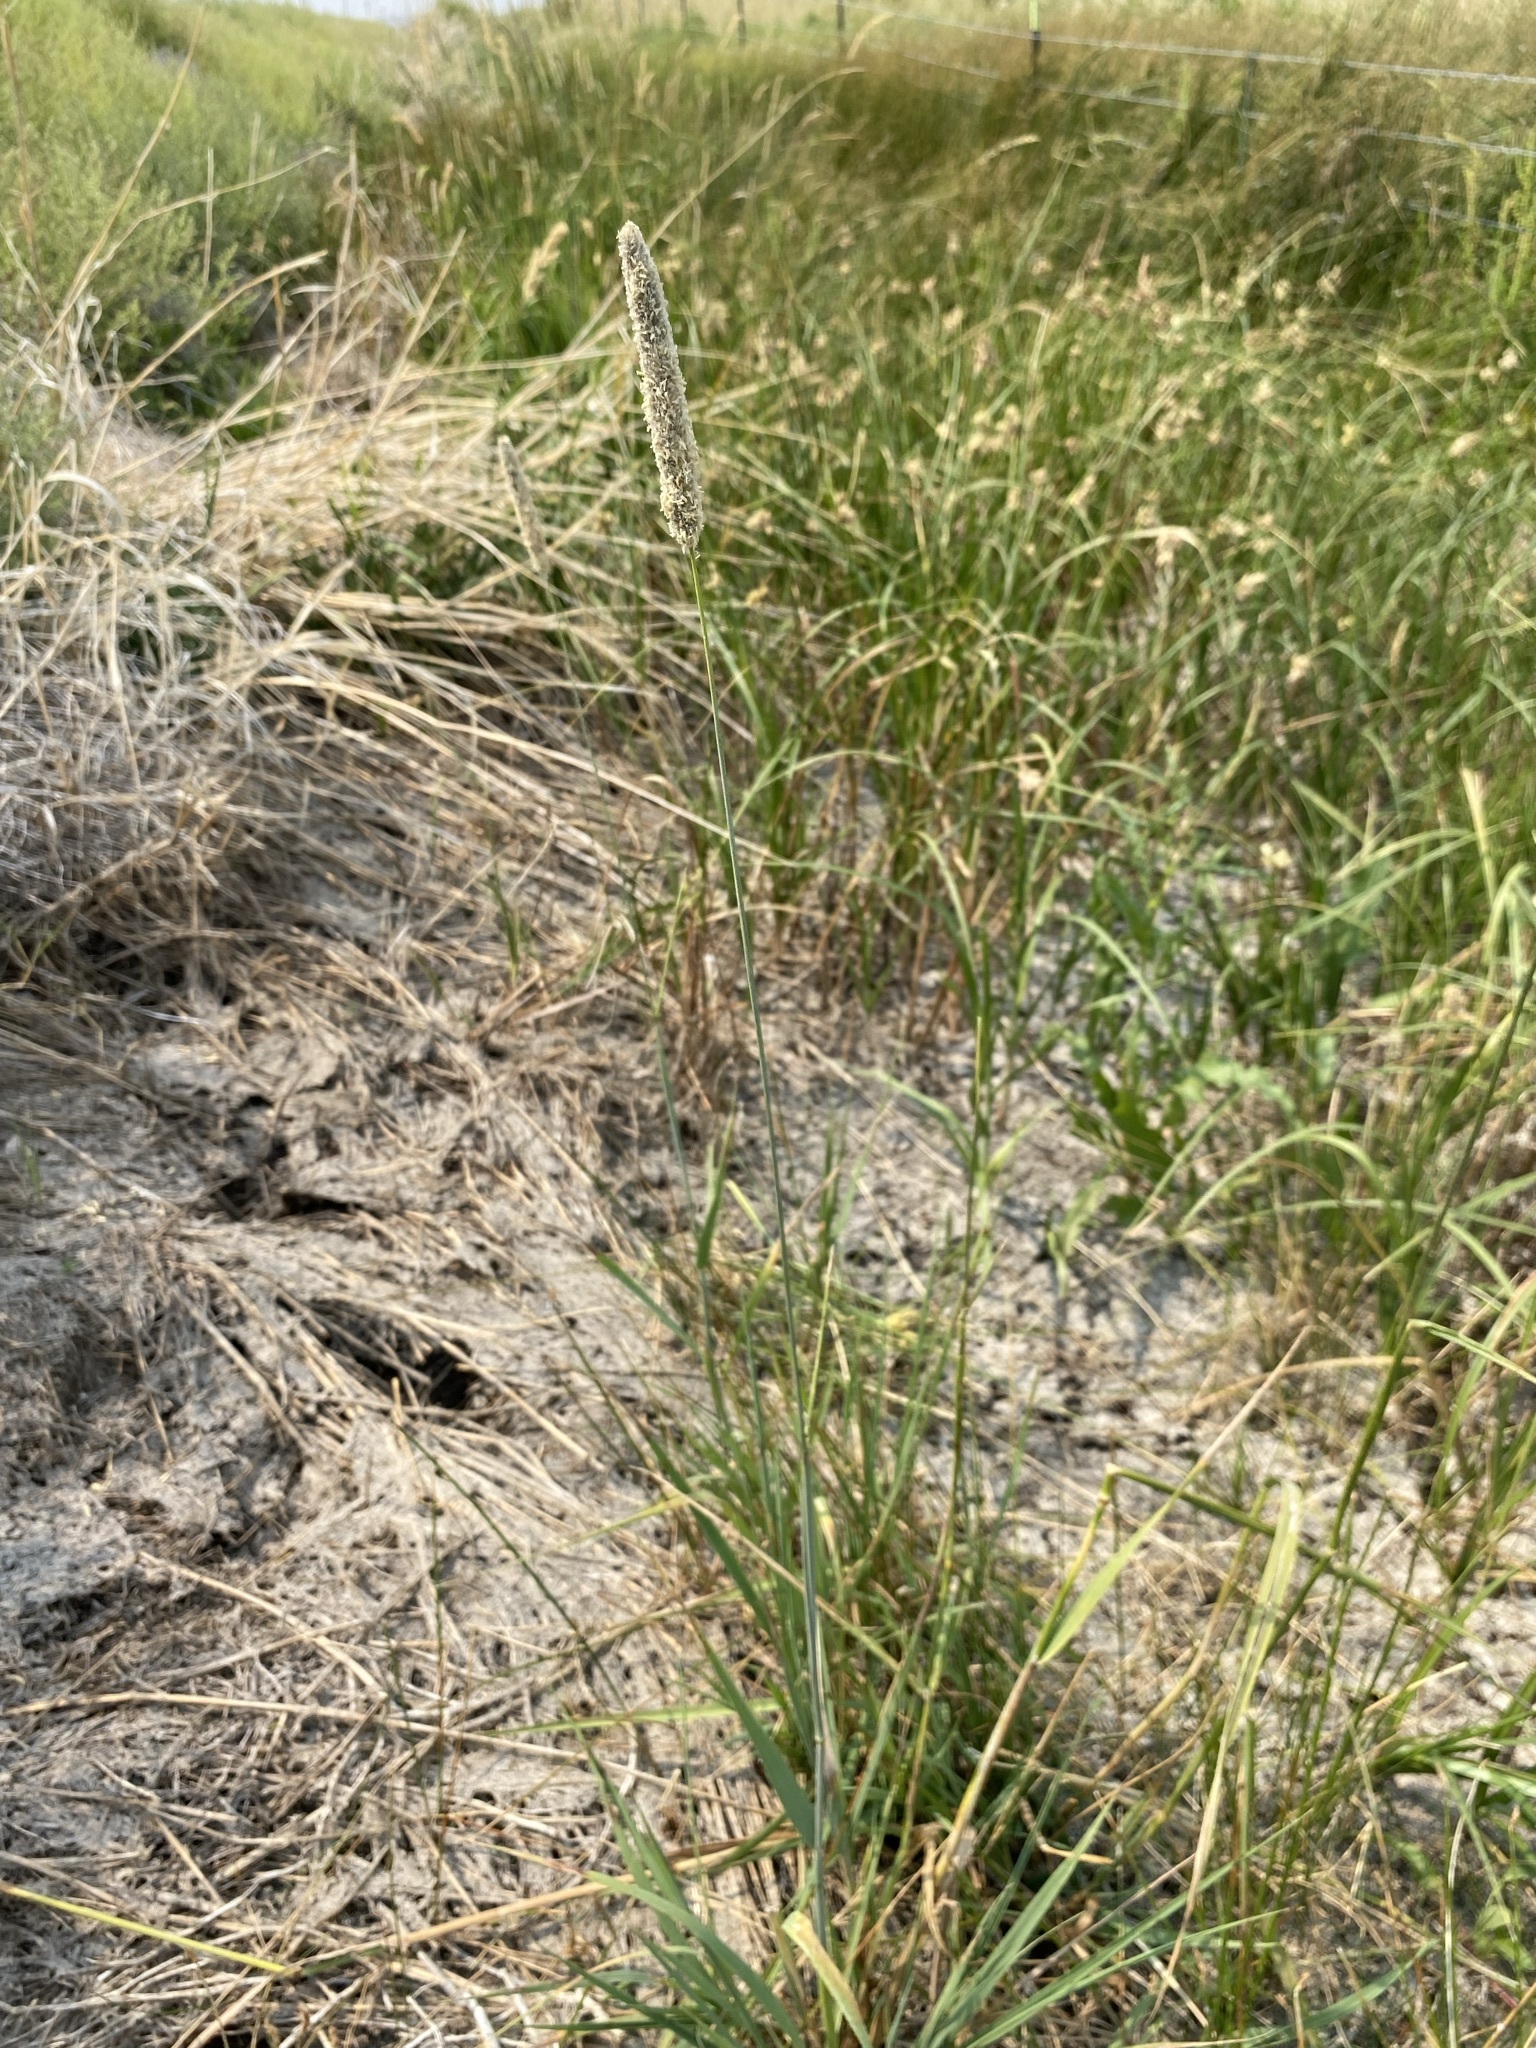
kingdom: Plantae
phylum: Tracheophyta
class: Liliopsida
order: Poales
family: Poaceae
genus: Alopecurus
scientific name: Alopecurus arundinaceus
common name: Creeping meadow foxtail
